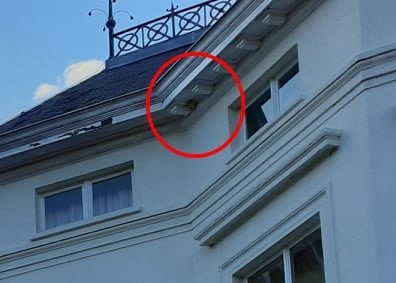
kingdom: Animalia
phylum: Arthropoda
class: Insecta
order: Hymenoptera
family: Vespidae
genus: Vespa
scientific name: Vespa velutina
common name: Asian hornet
